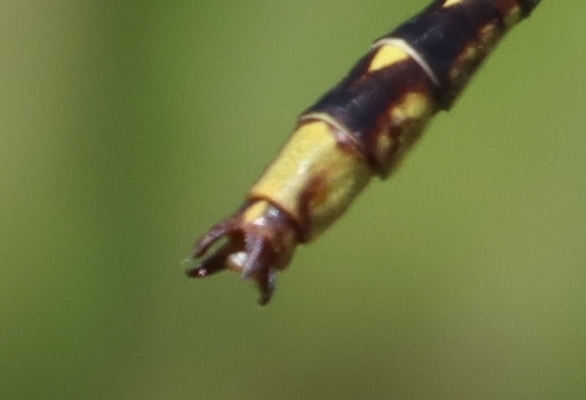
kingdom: Animalia
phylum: Arthropoda
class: Insecta
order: Odonata
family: Gomphidae
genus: Phanogomphus
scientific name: Phanogomphus lividus
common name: Ashy clubtail
